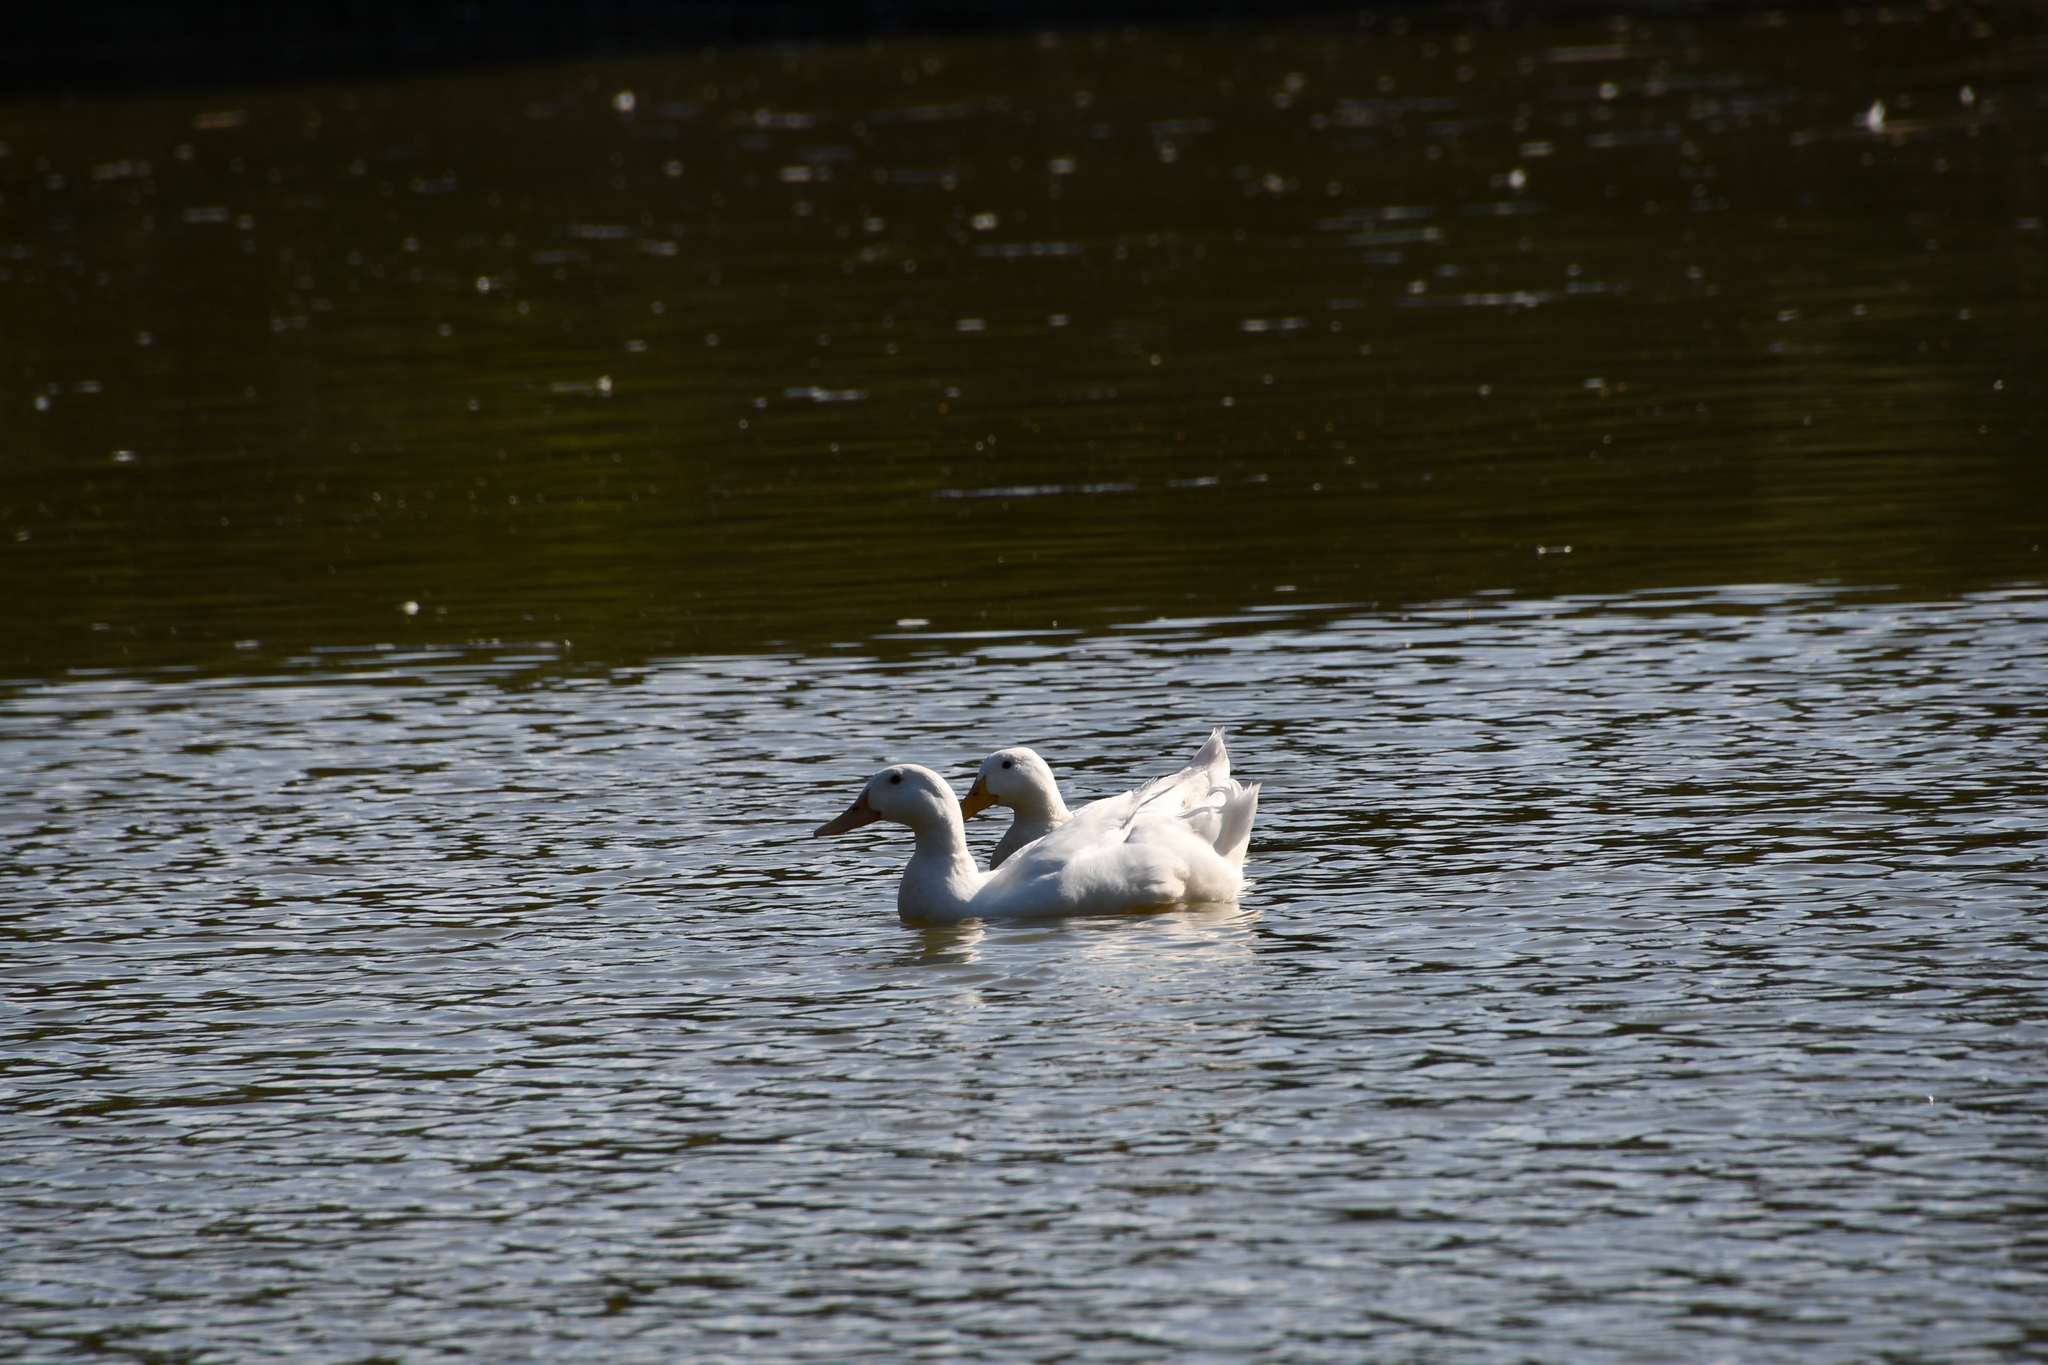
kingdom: Animalia
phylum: Chordata
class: Aves
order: Anseriformes
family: Anatidae
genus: Anas
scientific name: Anas platyrhynchos
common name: Mallard
